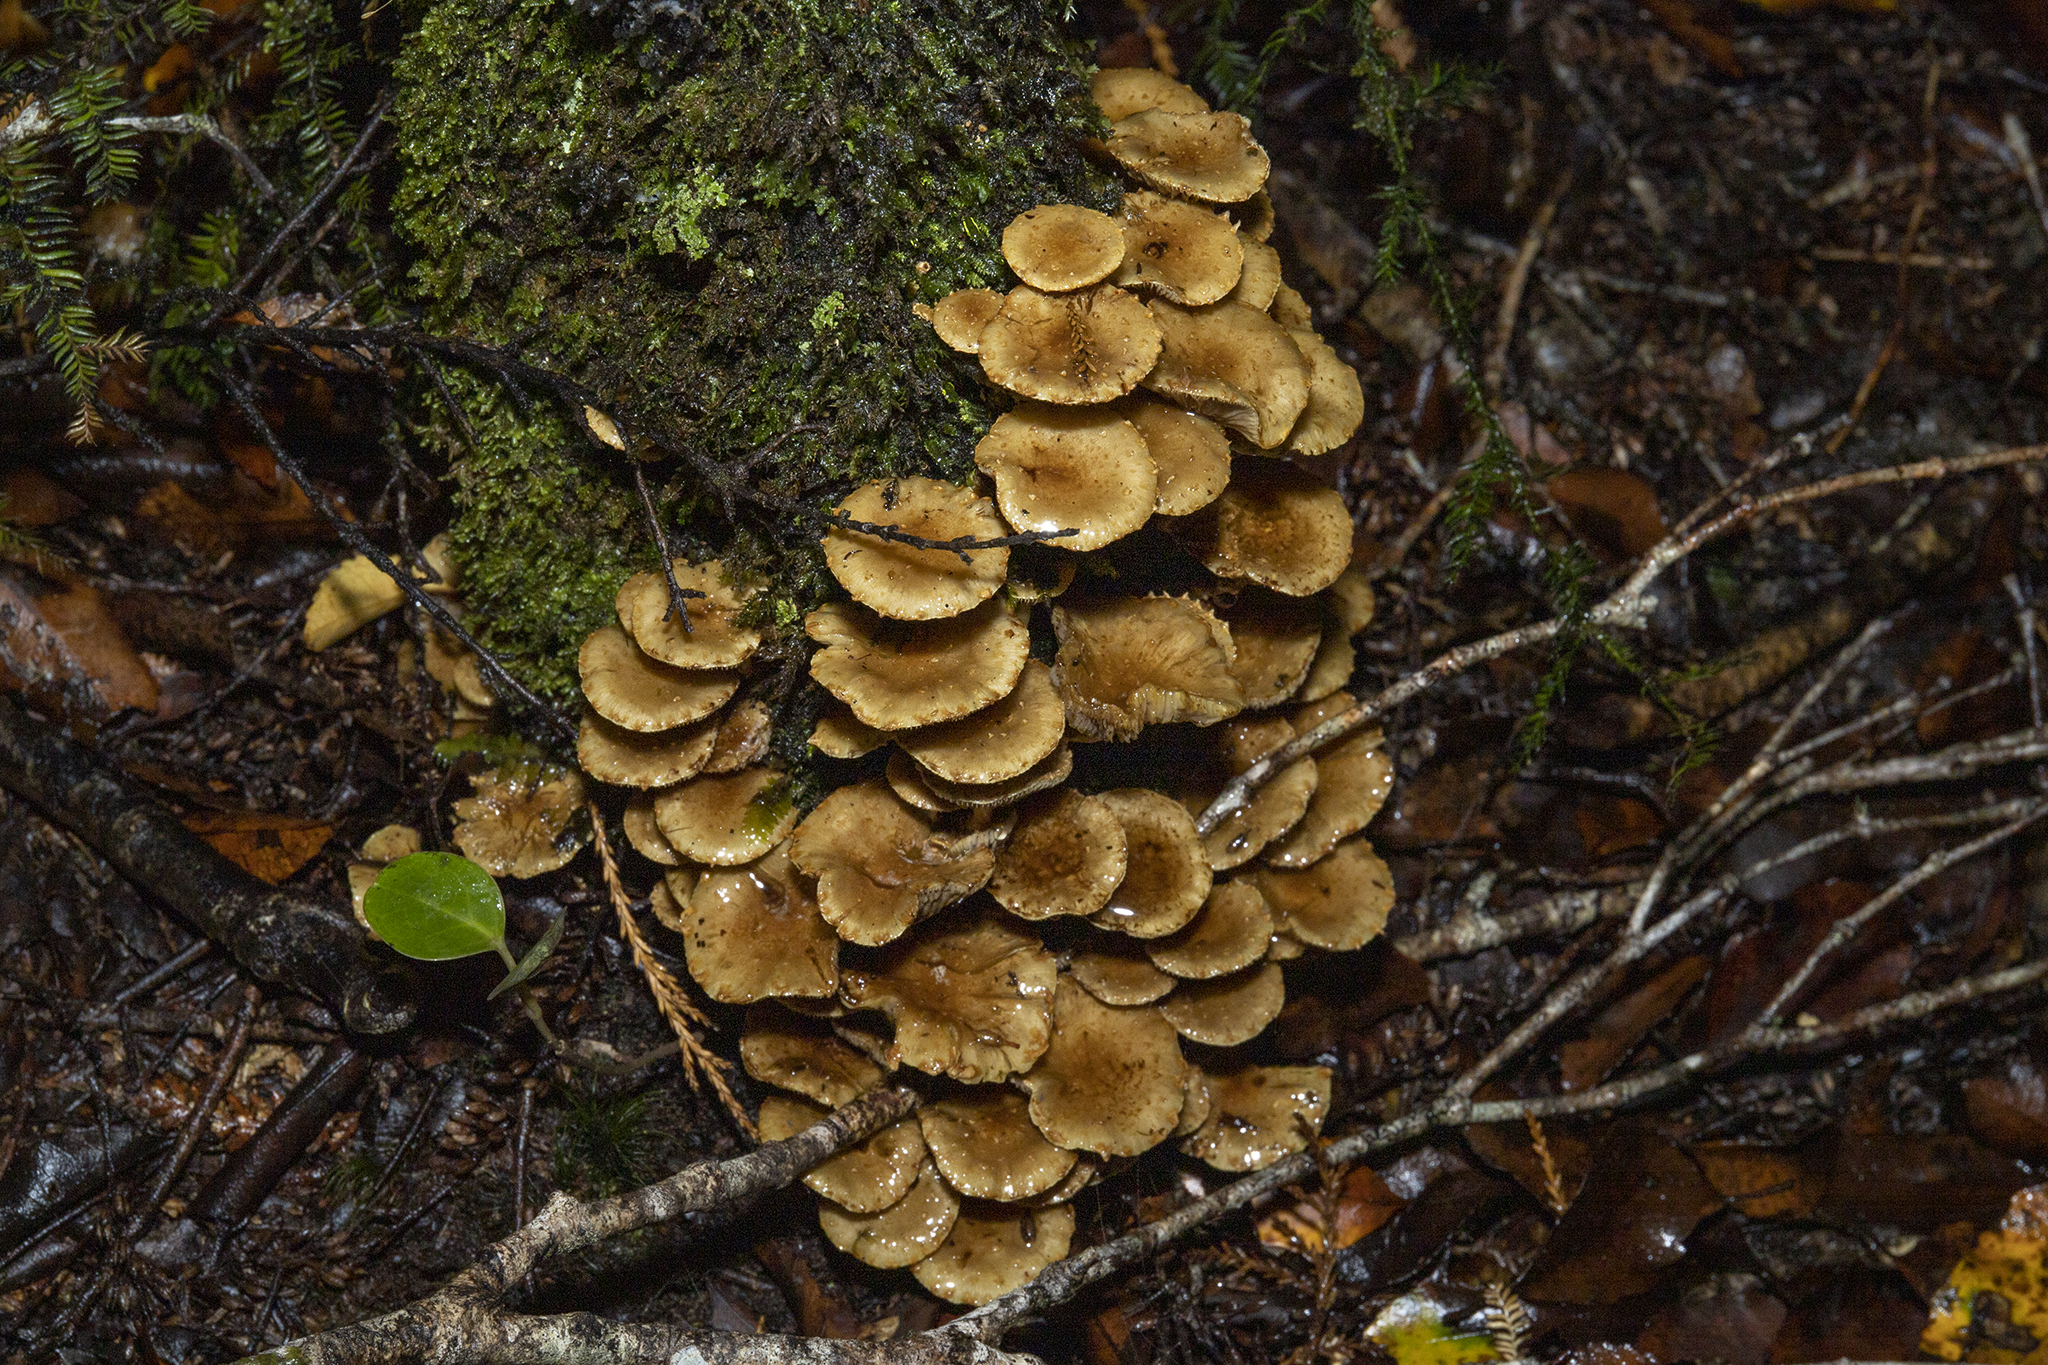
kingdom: Fungi
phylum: Basidiomycota
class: Agaricomycetes
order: Agaricales
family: Strophariaceae
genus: Pholiota
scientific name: Pholiota subflammans
